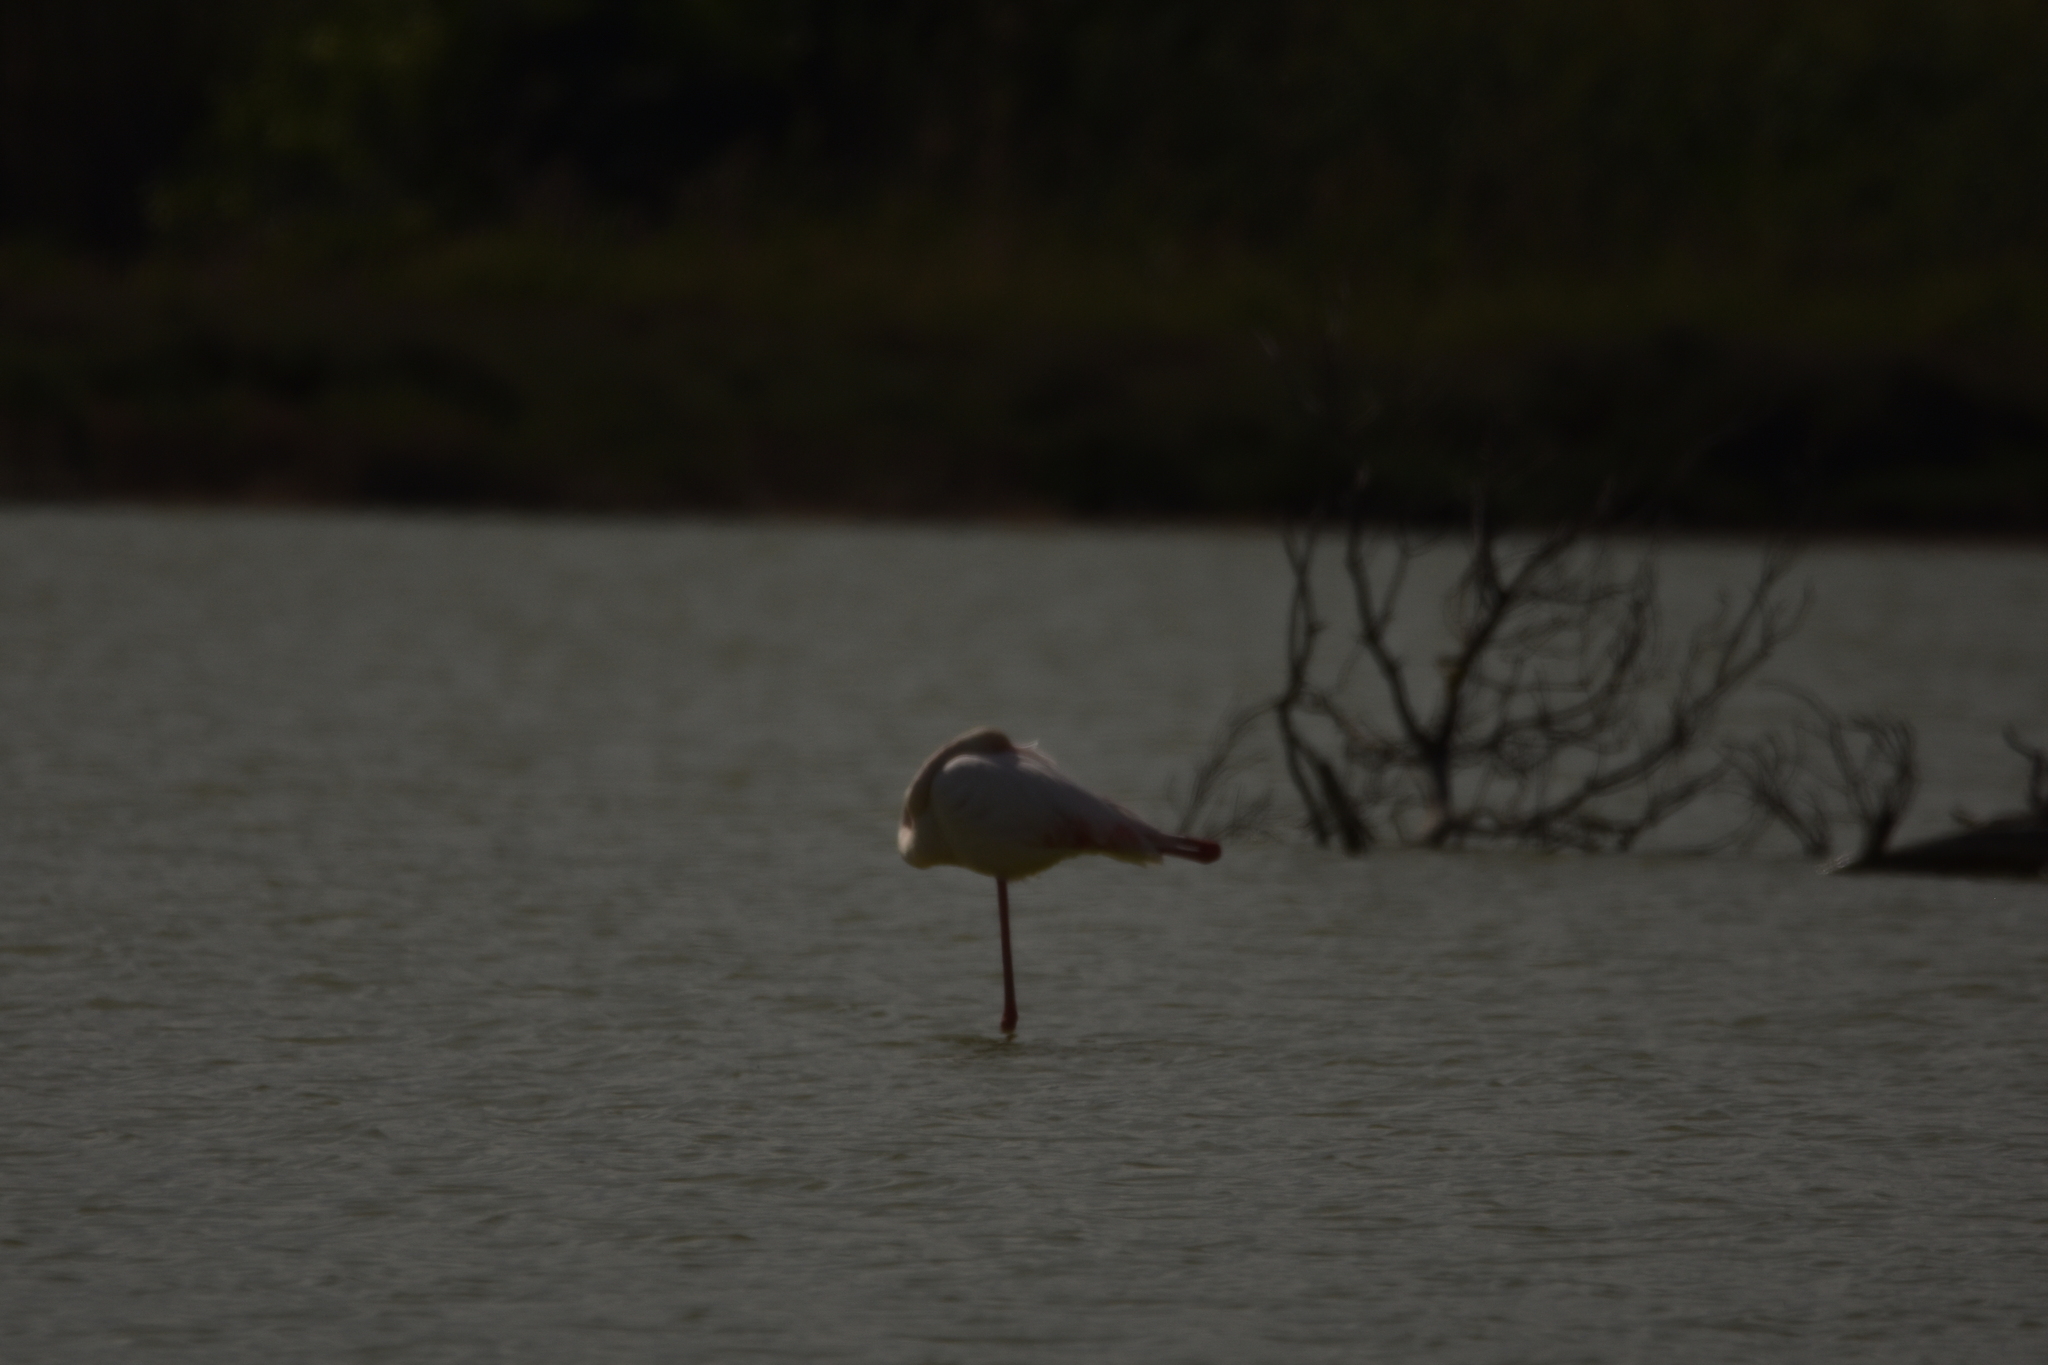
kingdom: Animalia
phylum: Chordata
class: Aves
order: Phoenicopteriformes
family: Phoenicopteridae
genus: Phoenicopterus
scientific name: Phoenicopterus roseus
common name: Greater flamingo
